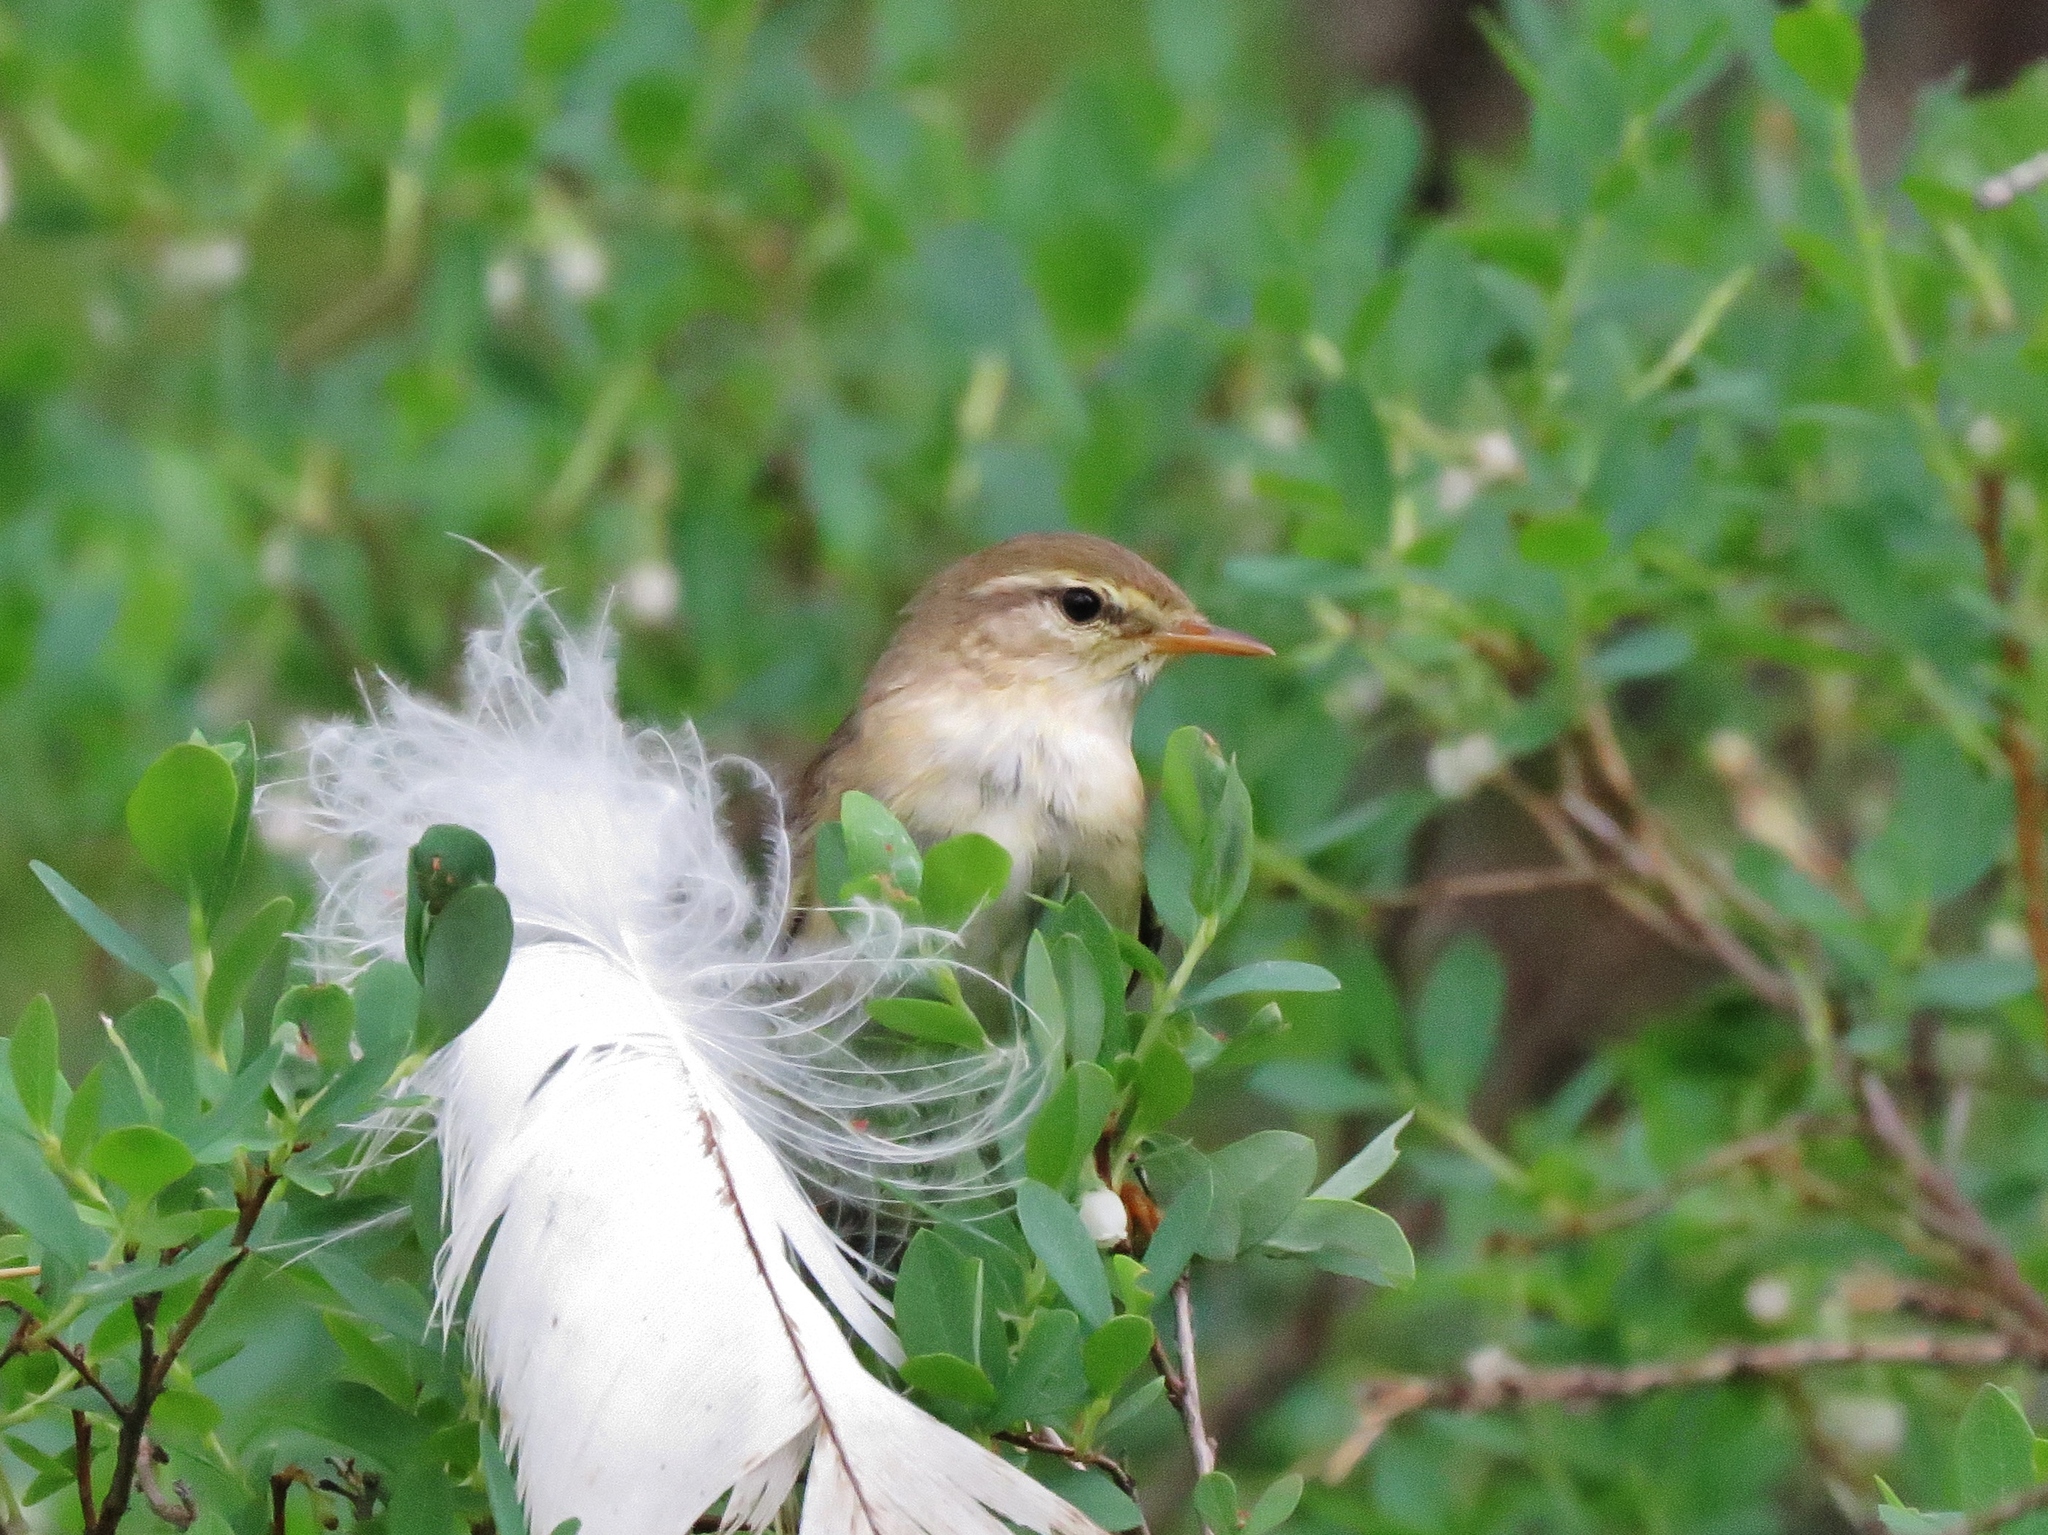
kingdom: Animalia
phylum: Chordata
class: Aves
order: Passeriformes
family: Phylloscopidae
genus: Phylloscopus
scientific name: Phylloscopus trochilus
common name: Willow warbler
